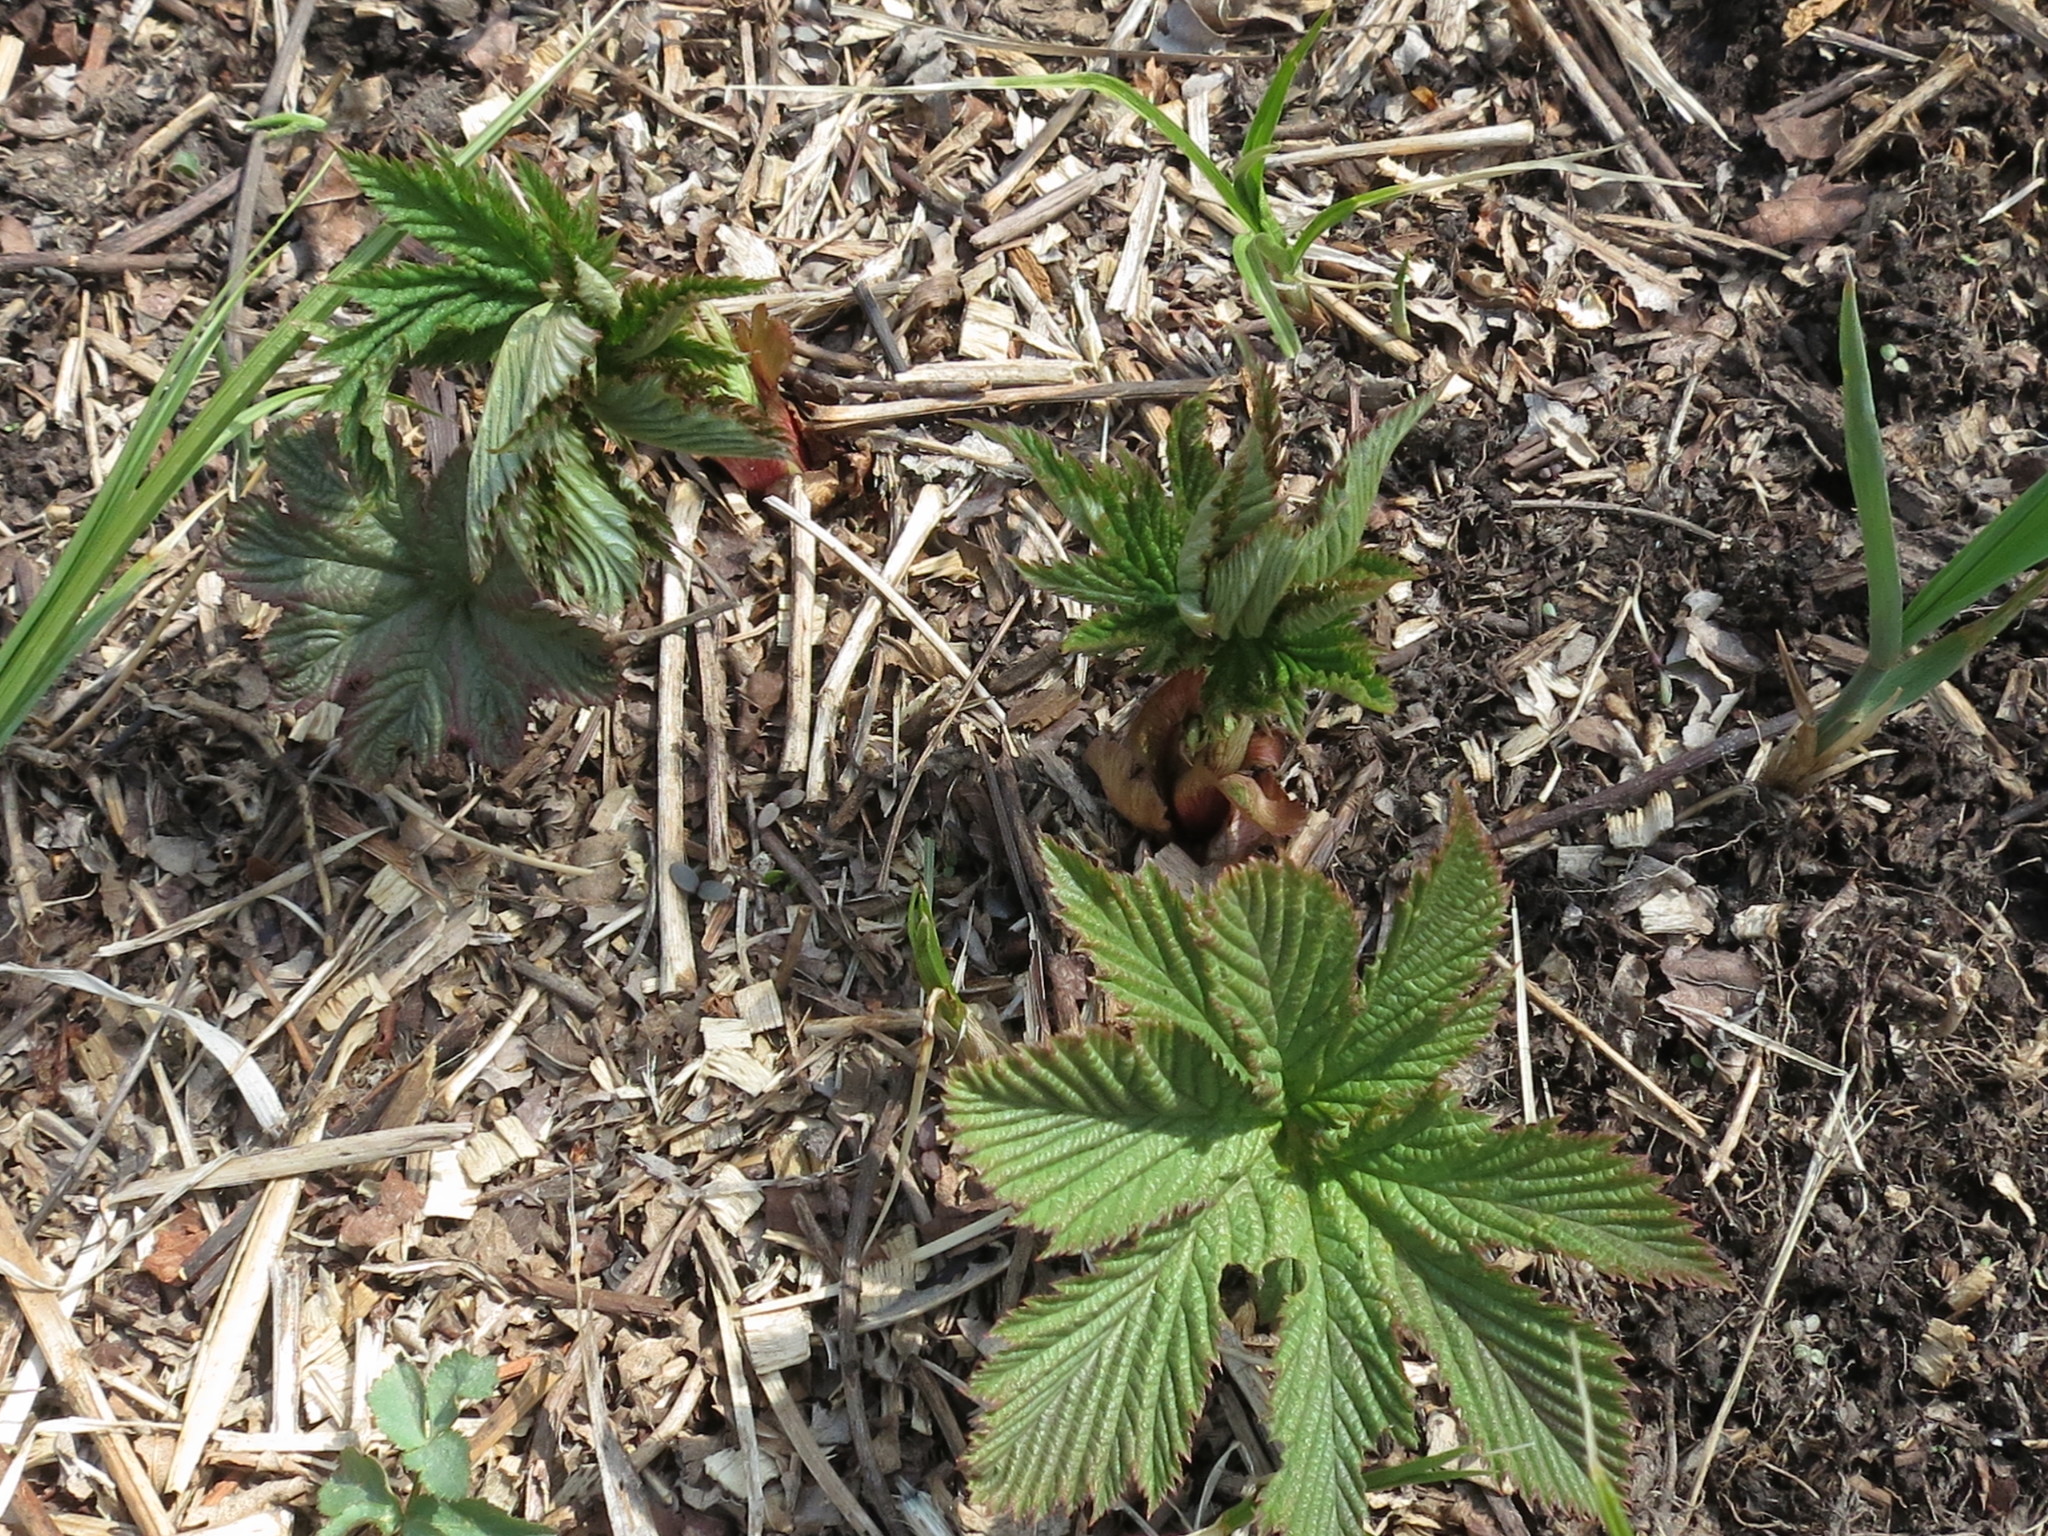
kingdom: Plantae
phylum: Tracheophyta
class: Magnoliopsida
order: Rosales
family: Rosaceae
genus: Filipendula
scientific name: Filipendula digitata
